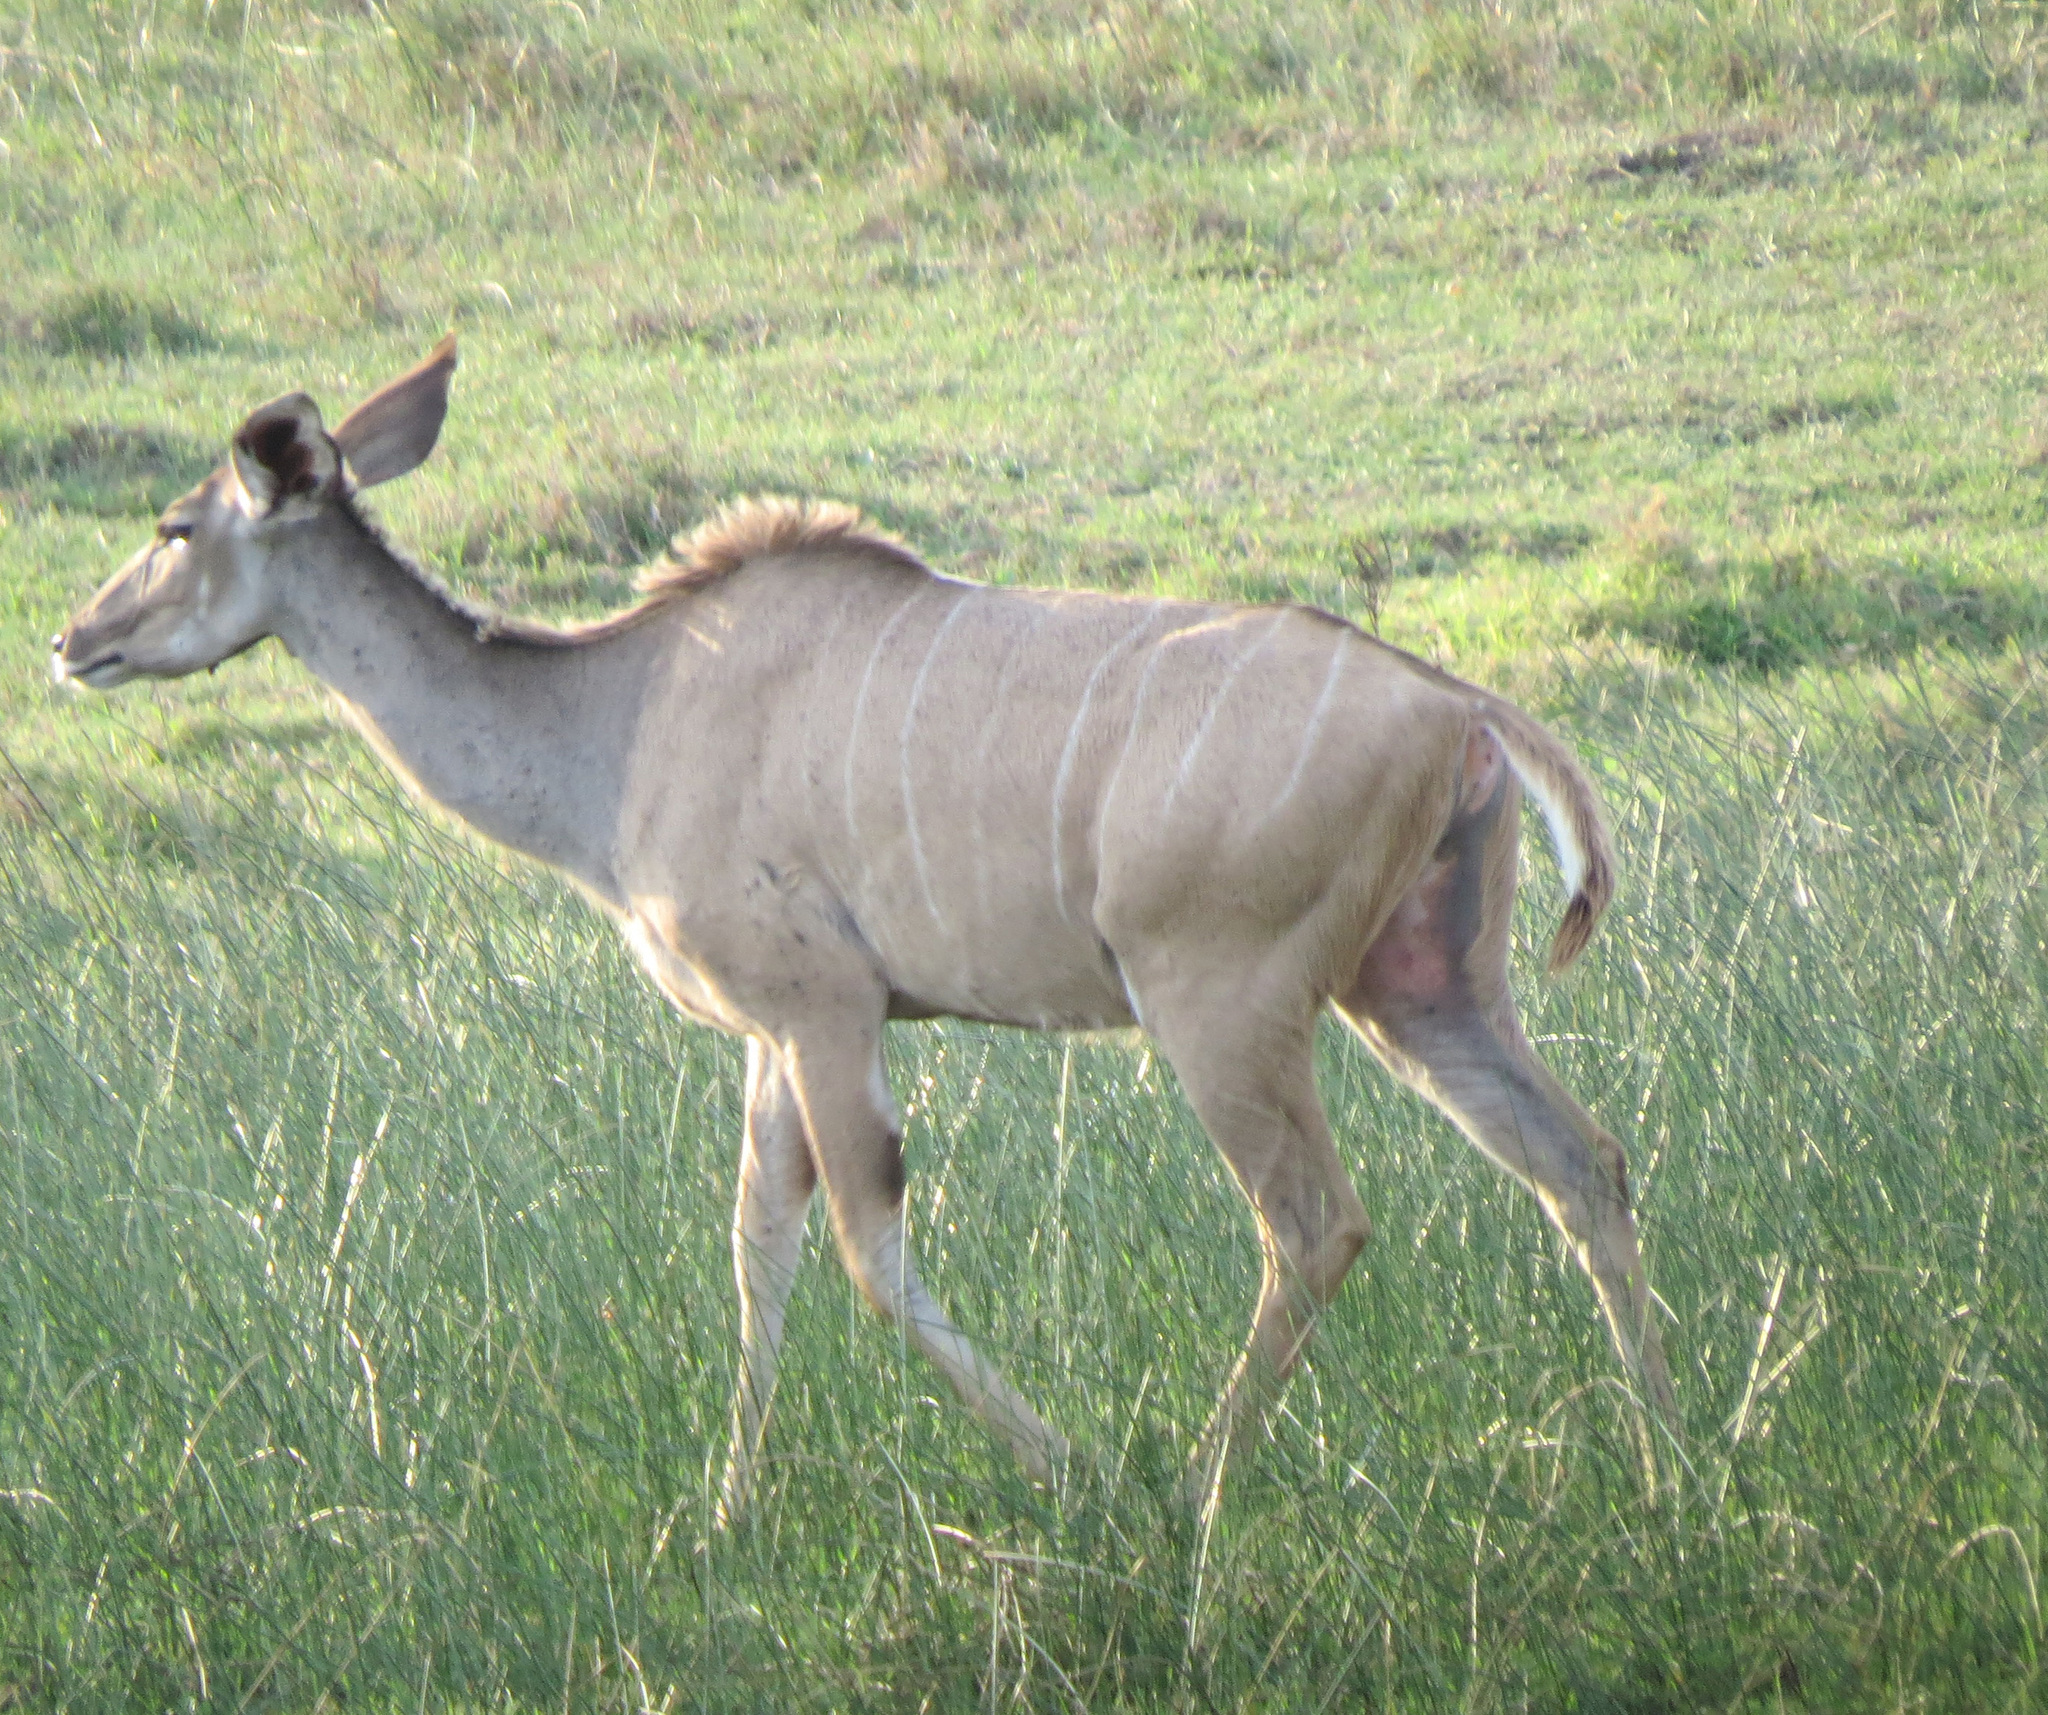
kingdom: Animalia
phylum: Chordata
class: Mammalia
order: Artiodactyla
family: Bovidae
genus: Tragelaphus
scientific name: Tragelaphus strepsiceros
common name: Greater kudu
